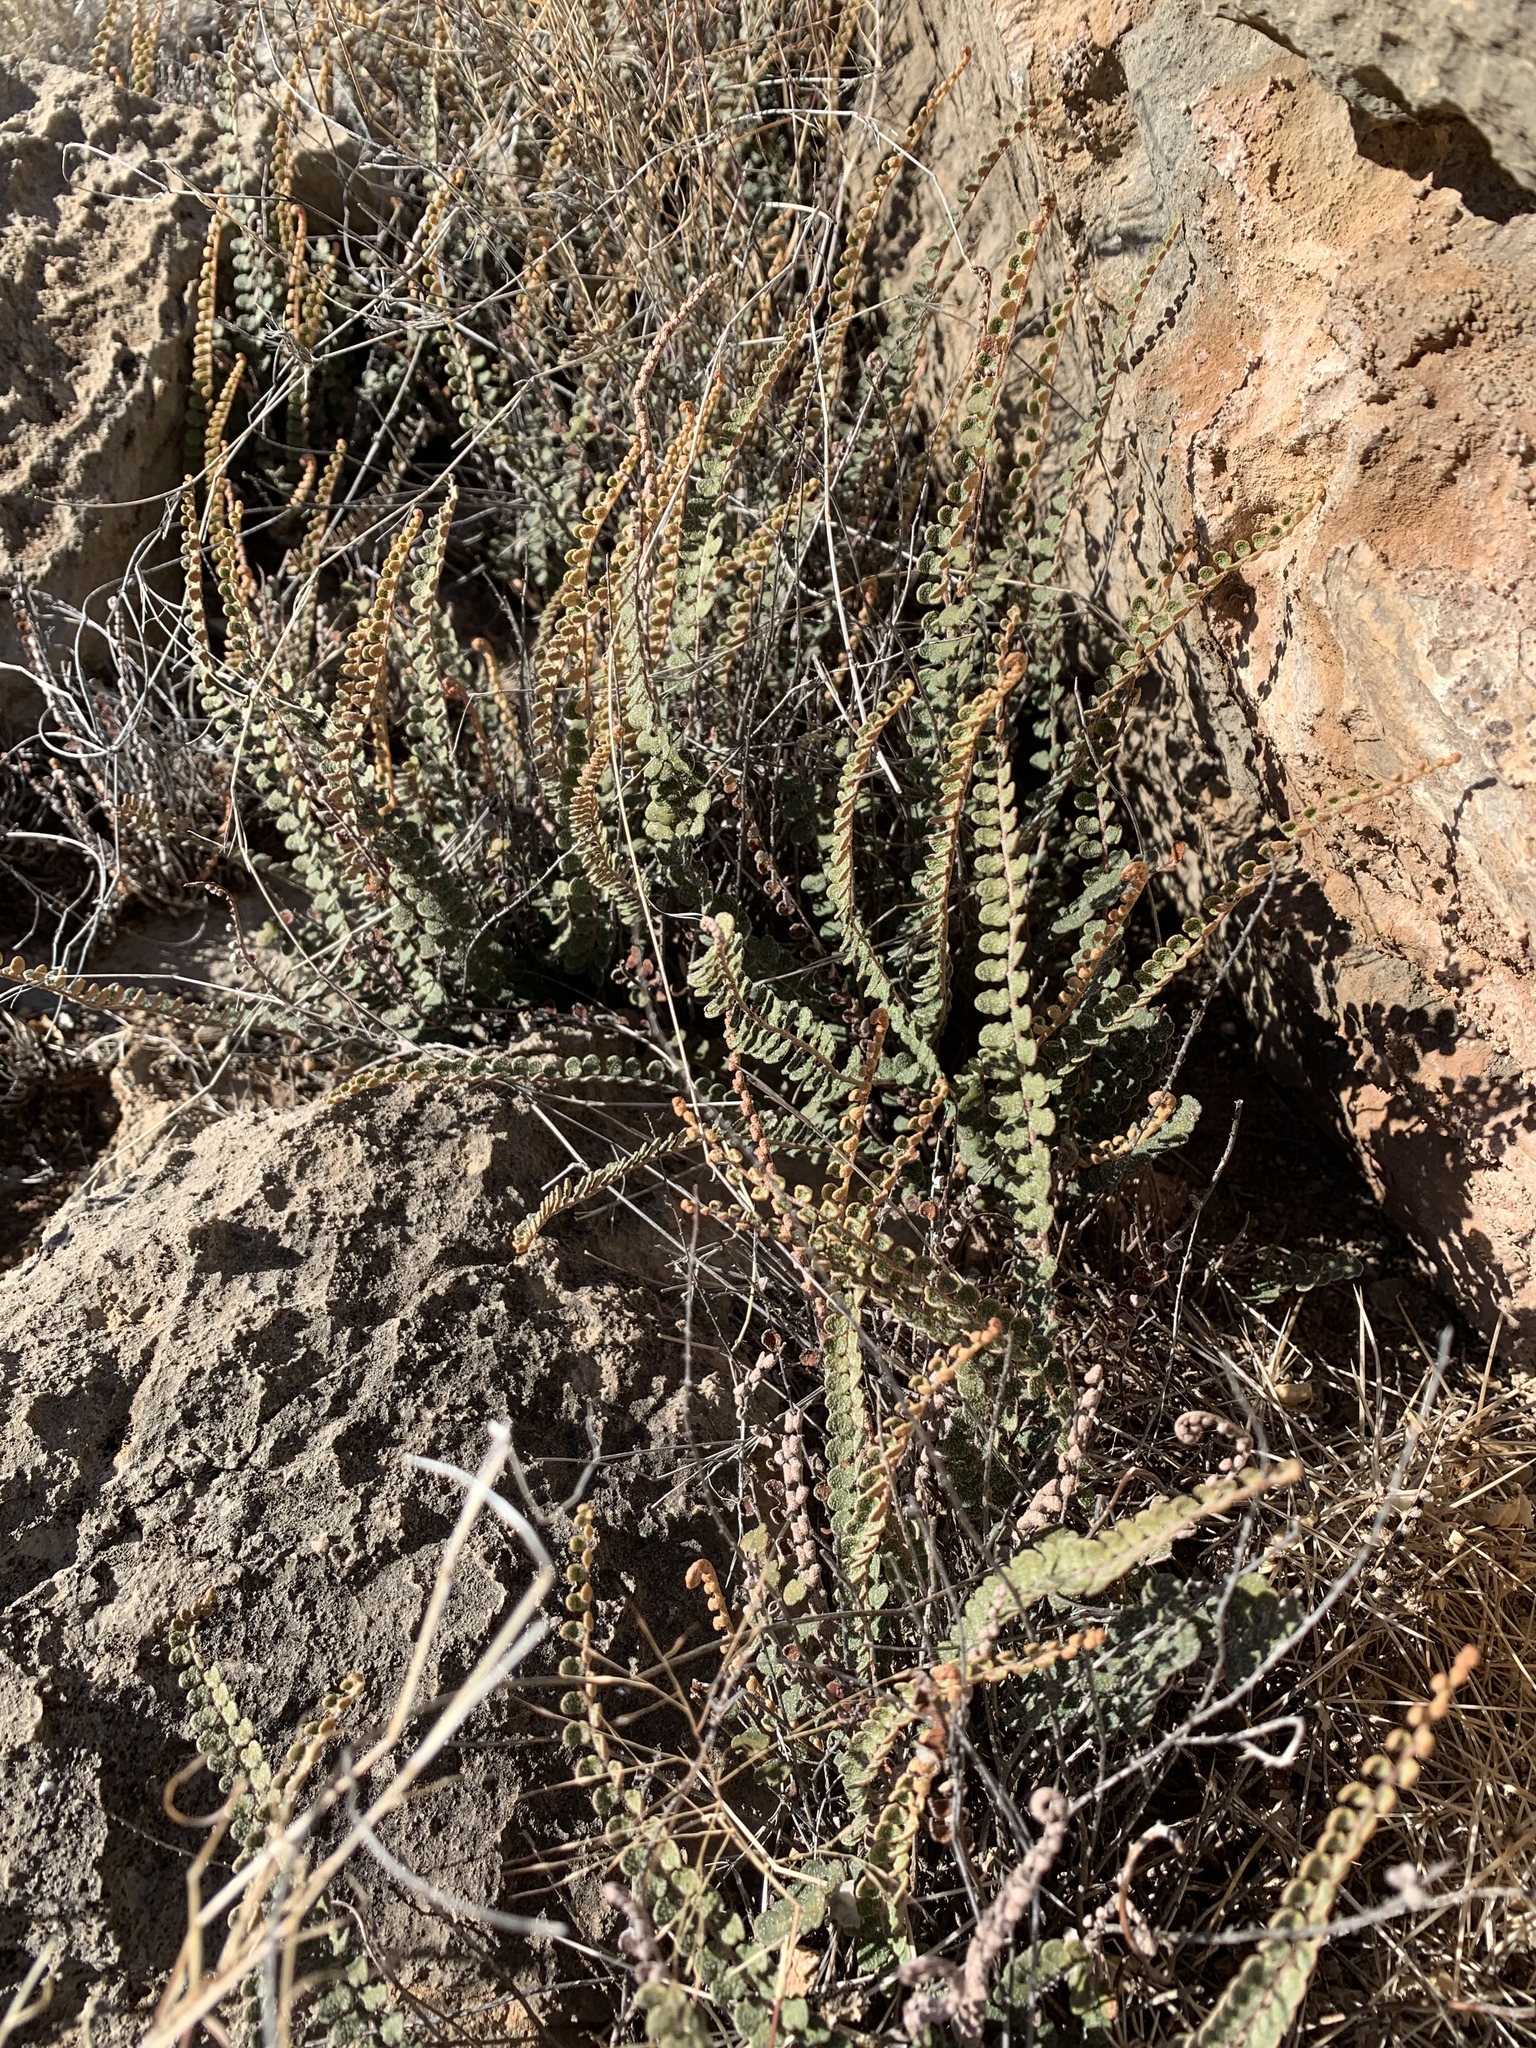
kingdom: Plantae
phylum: Tracheophyta
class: Polypodiopsida
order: Polypodiales
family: Pteridaceae
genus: Astrolepis
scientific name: Astrolepis cochisensis
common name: Scaly cloak fern
